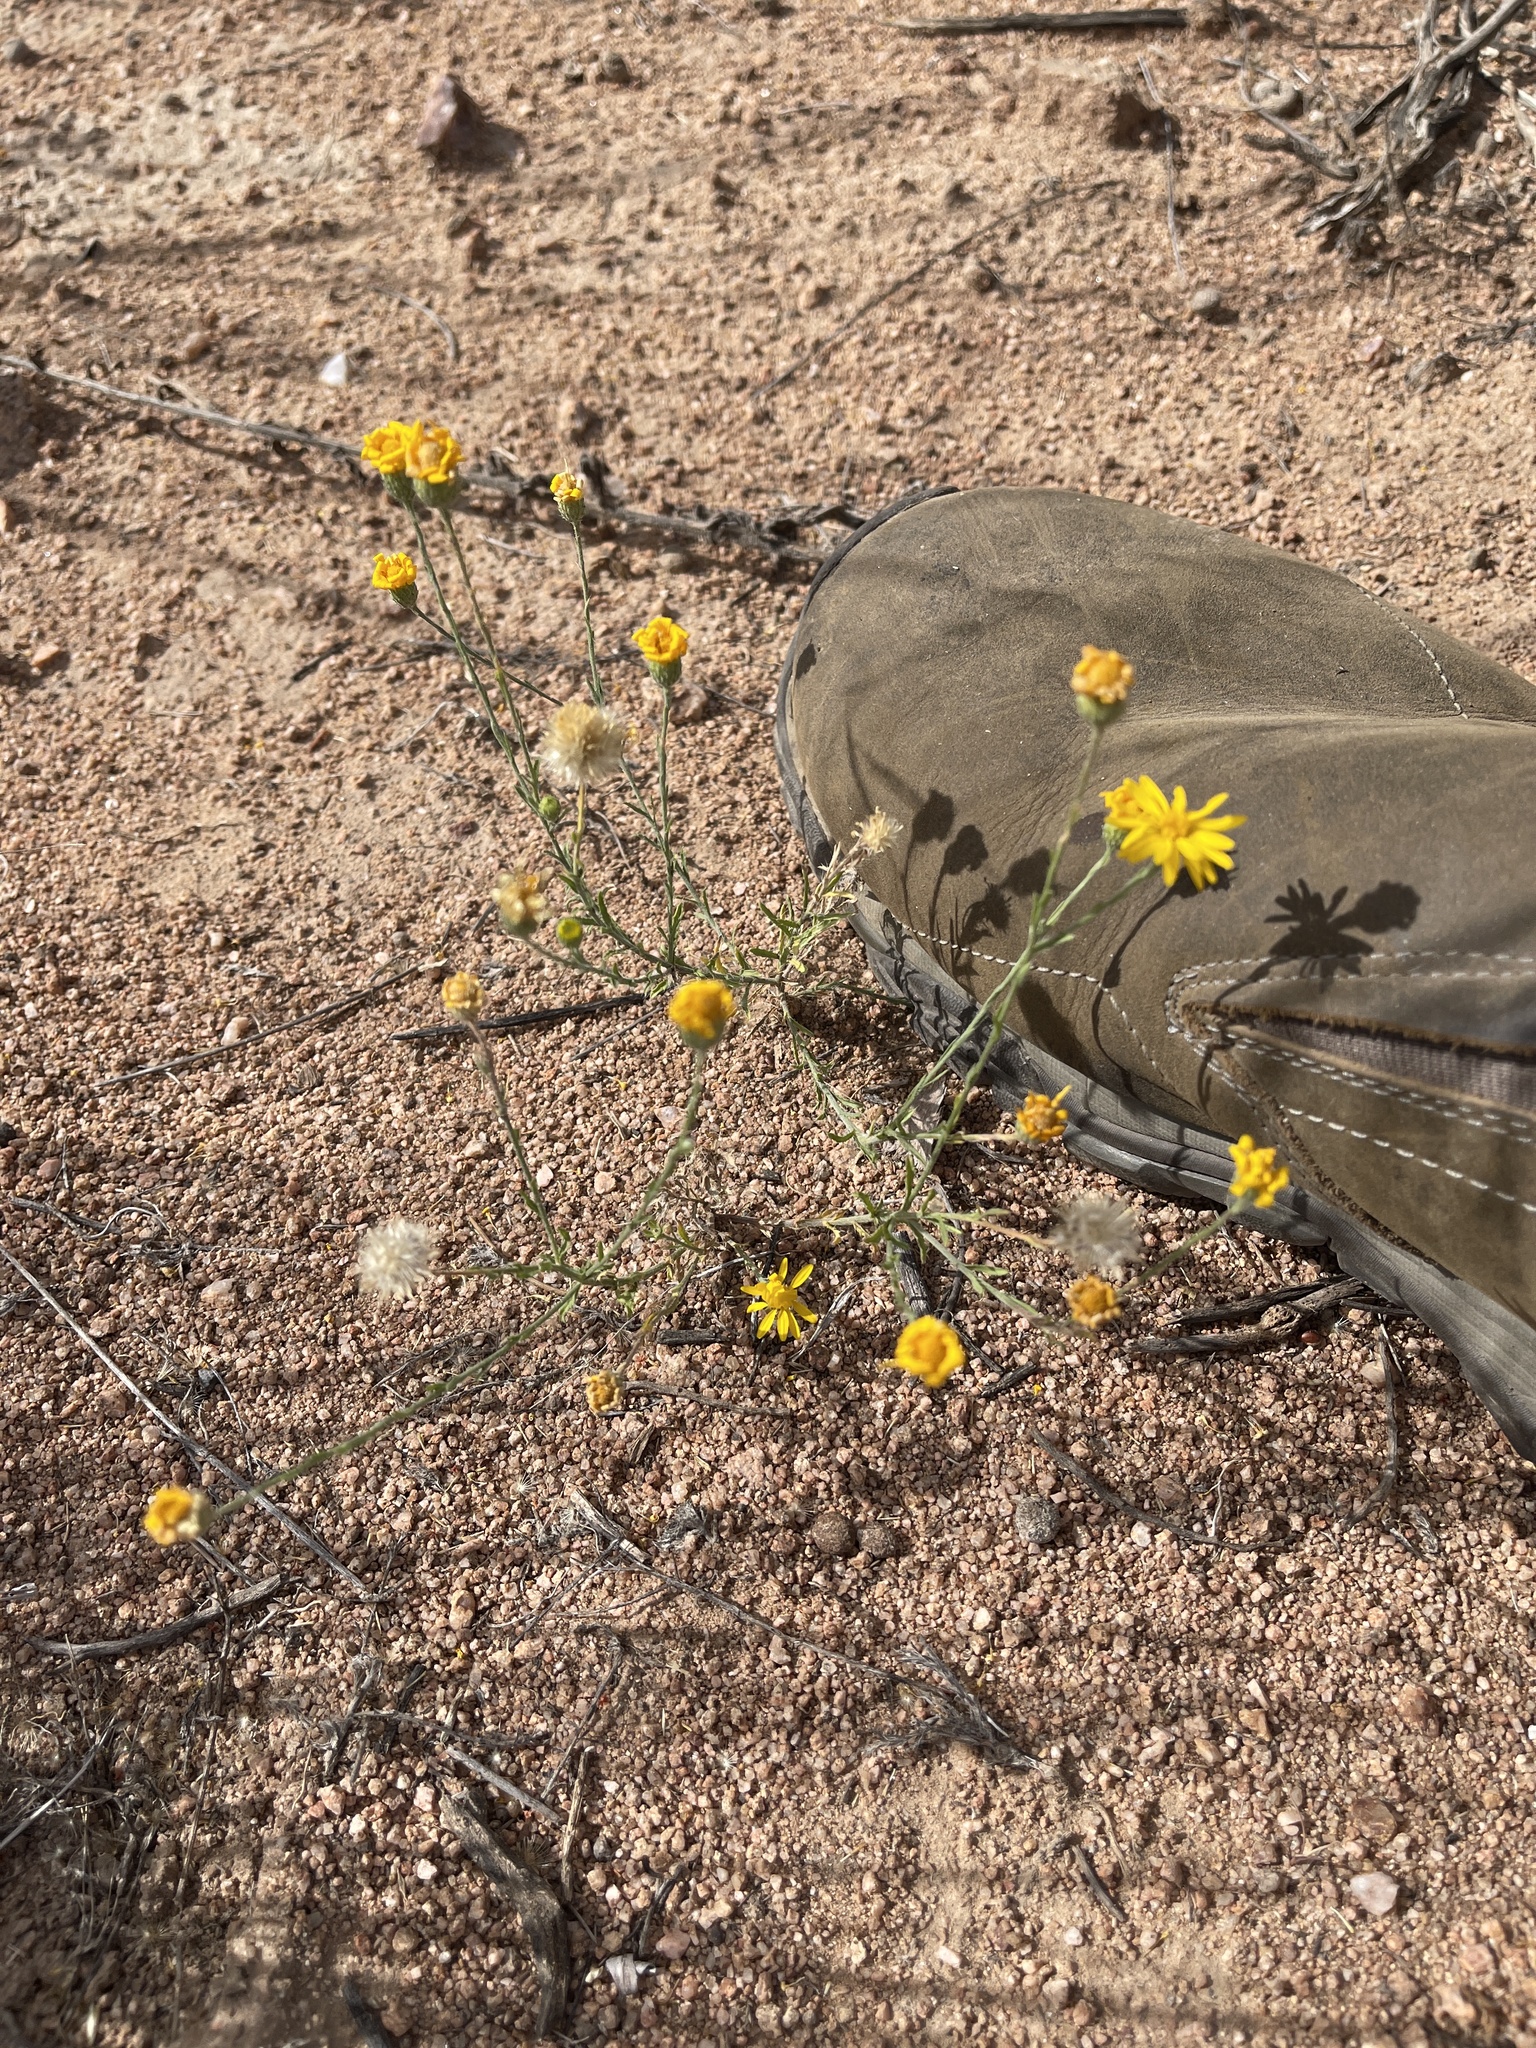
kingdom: Plantae
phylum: Tracheophyta
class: Magnoliopsida
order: Asterales
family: Asteraceae
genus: Xanthisma
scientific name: Xanthisma gracile
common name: Slender goldenweed
